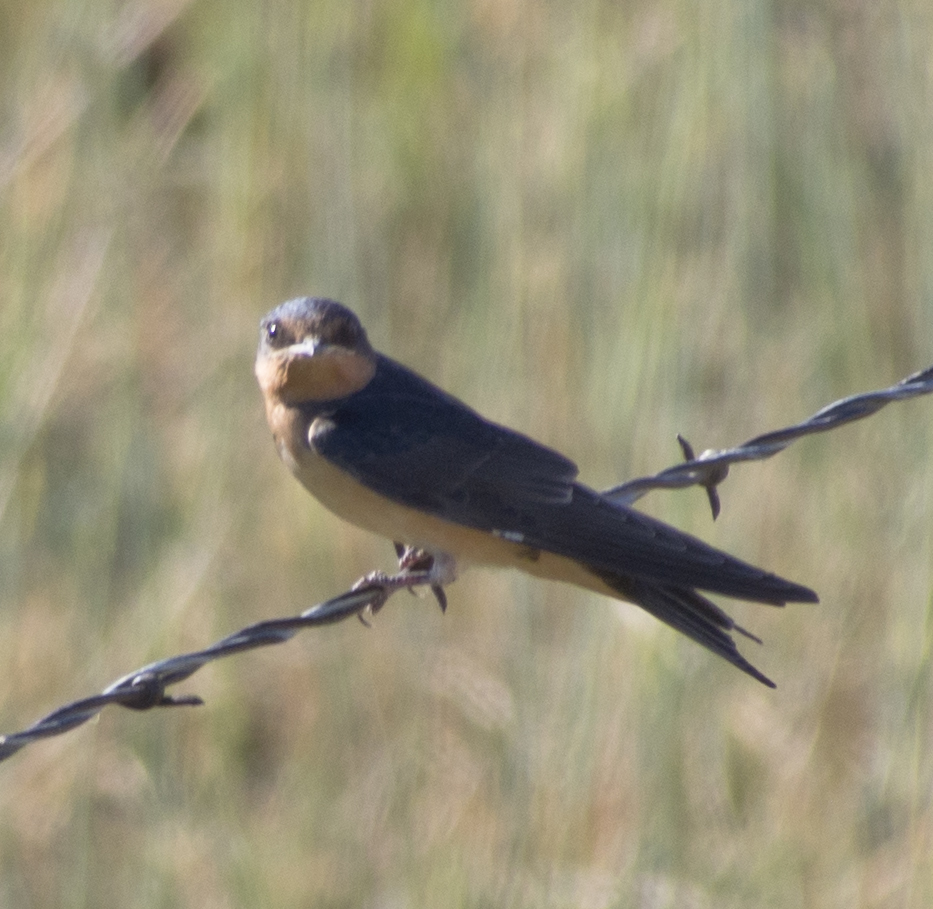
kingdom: Animalia
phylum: Chordata
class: Aves
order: Passeriformes
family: Hirundinidae
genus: Hirundo
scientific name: Hirundo rustica
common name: Barn swallow
